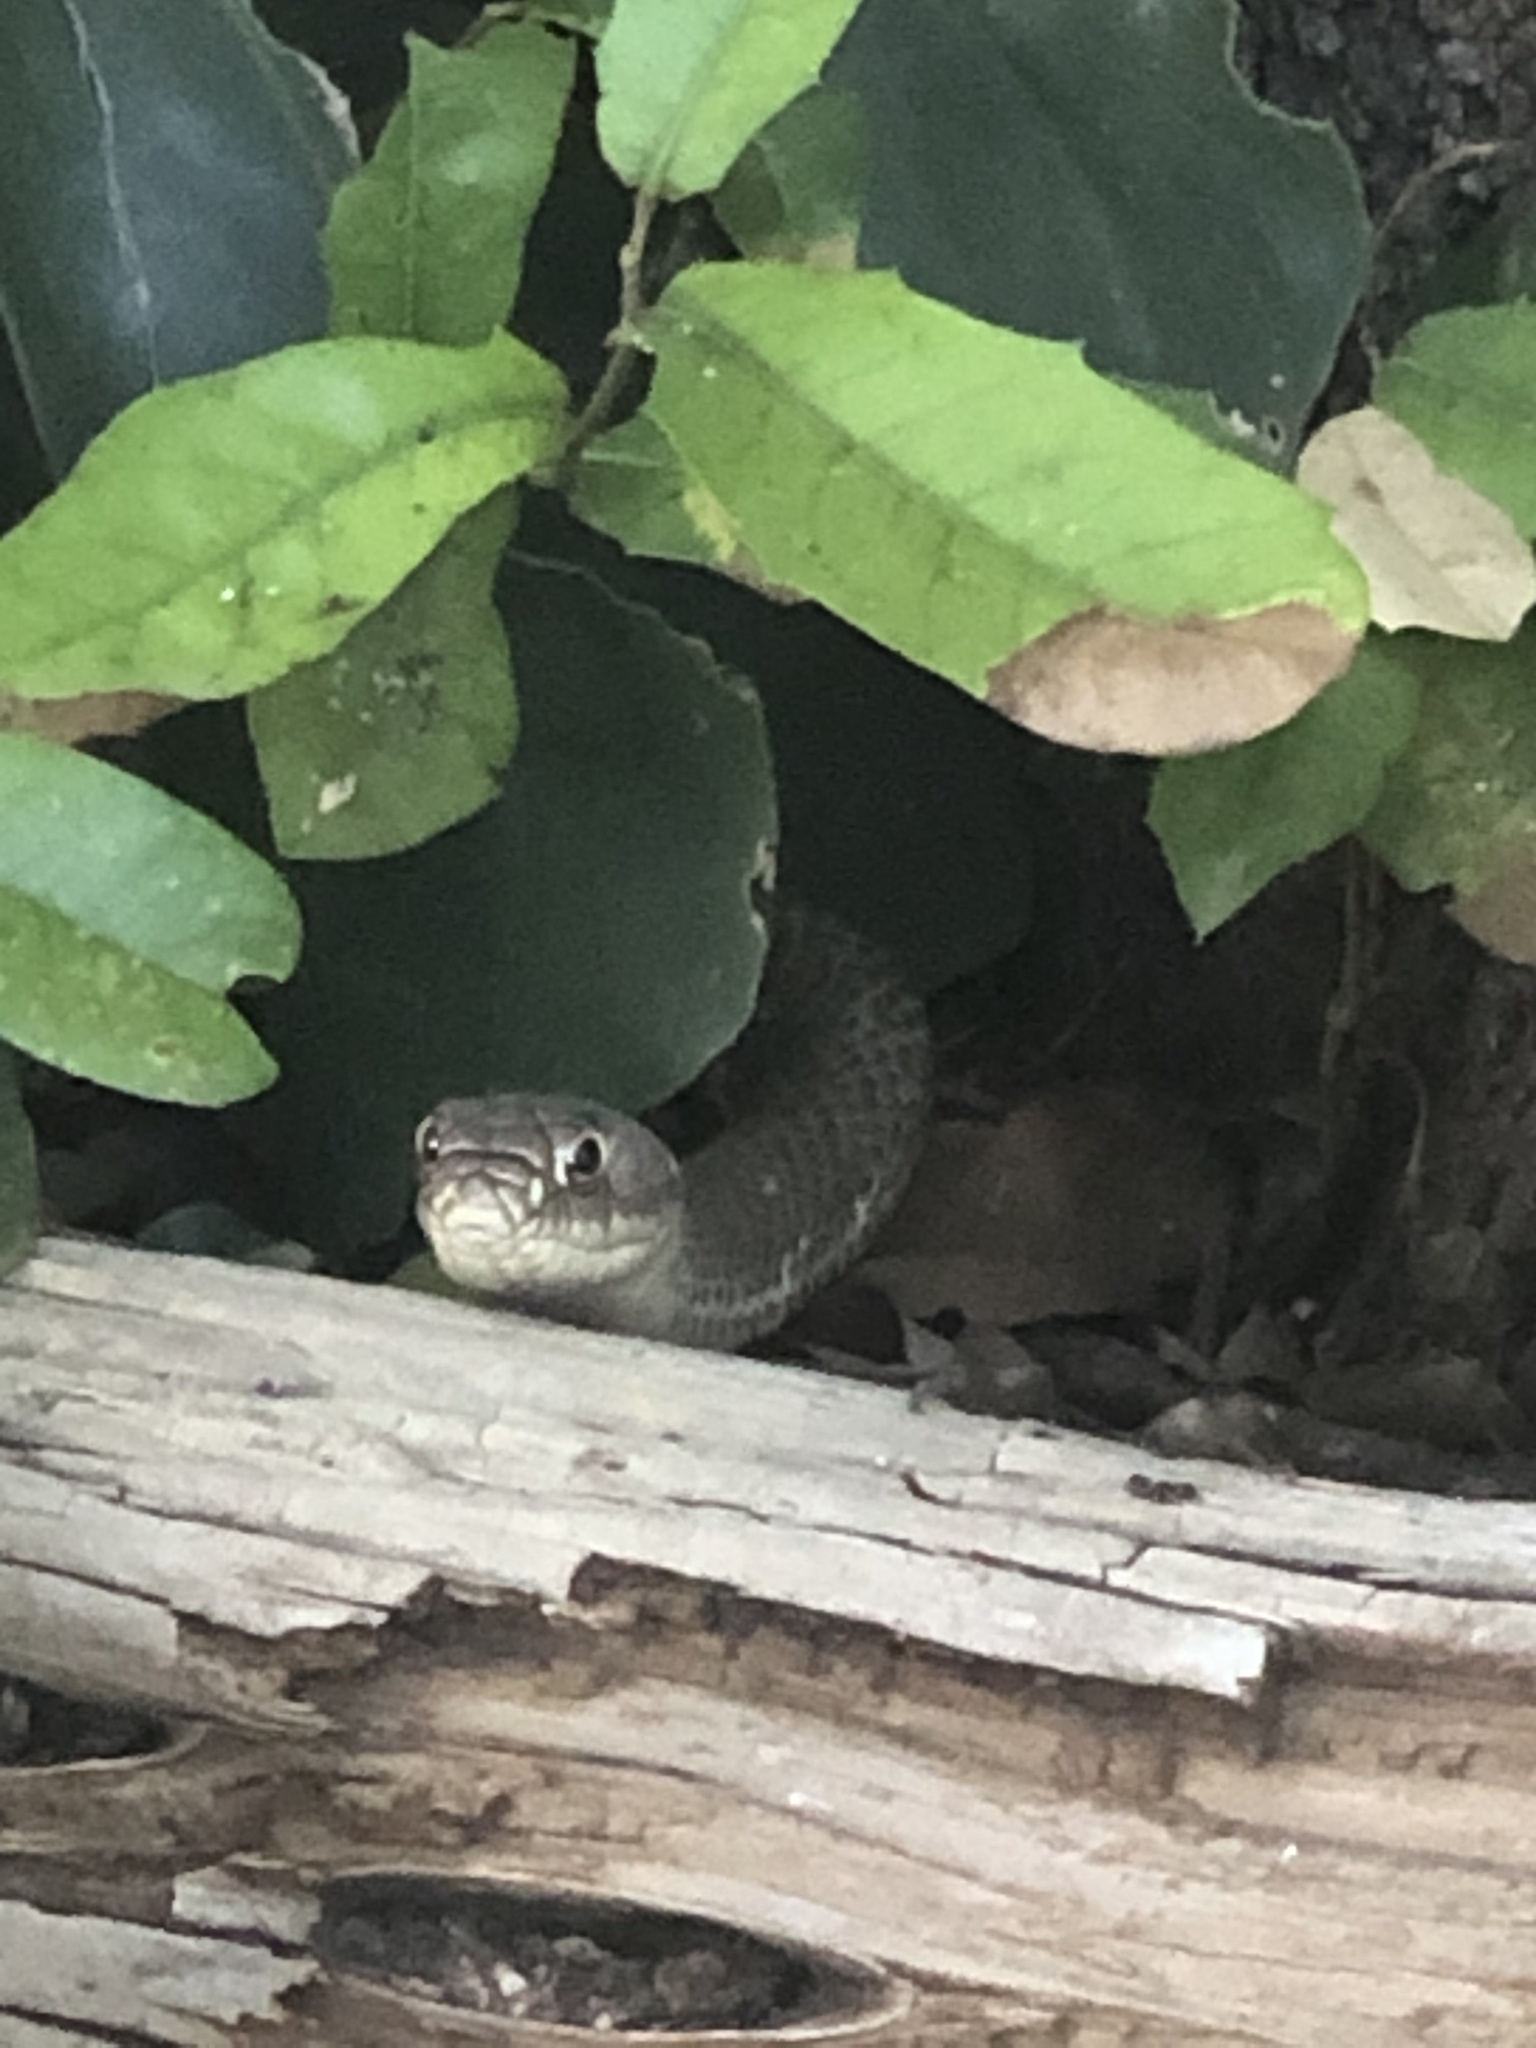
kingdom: Animalia
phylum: Chordata
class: Squamata
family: Colubridae
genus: Masticophis
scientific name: Masticophis flagellum
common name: Coachwhip
